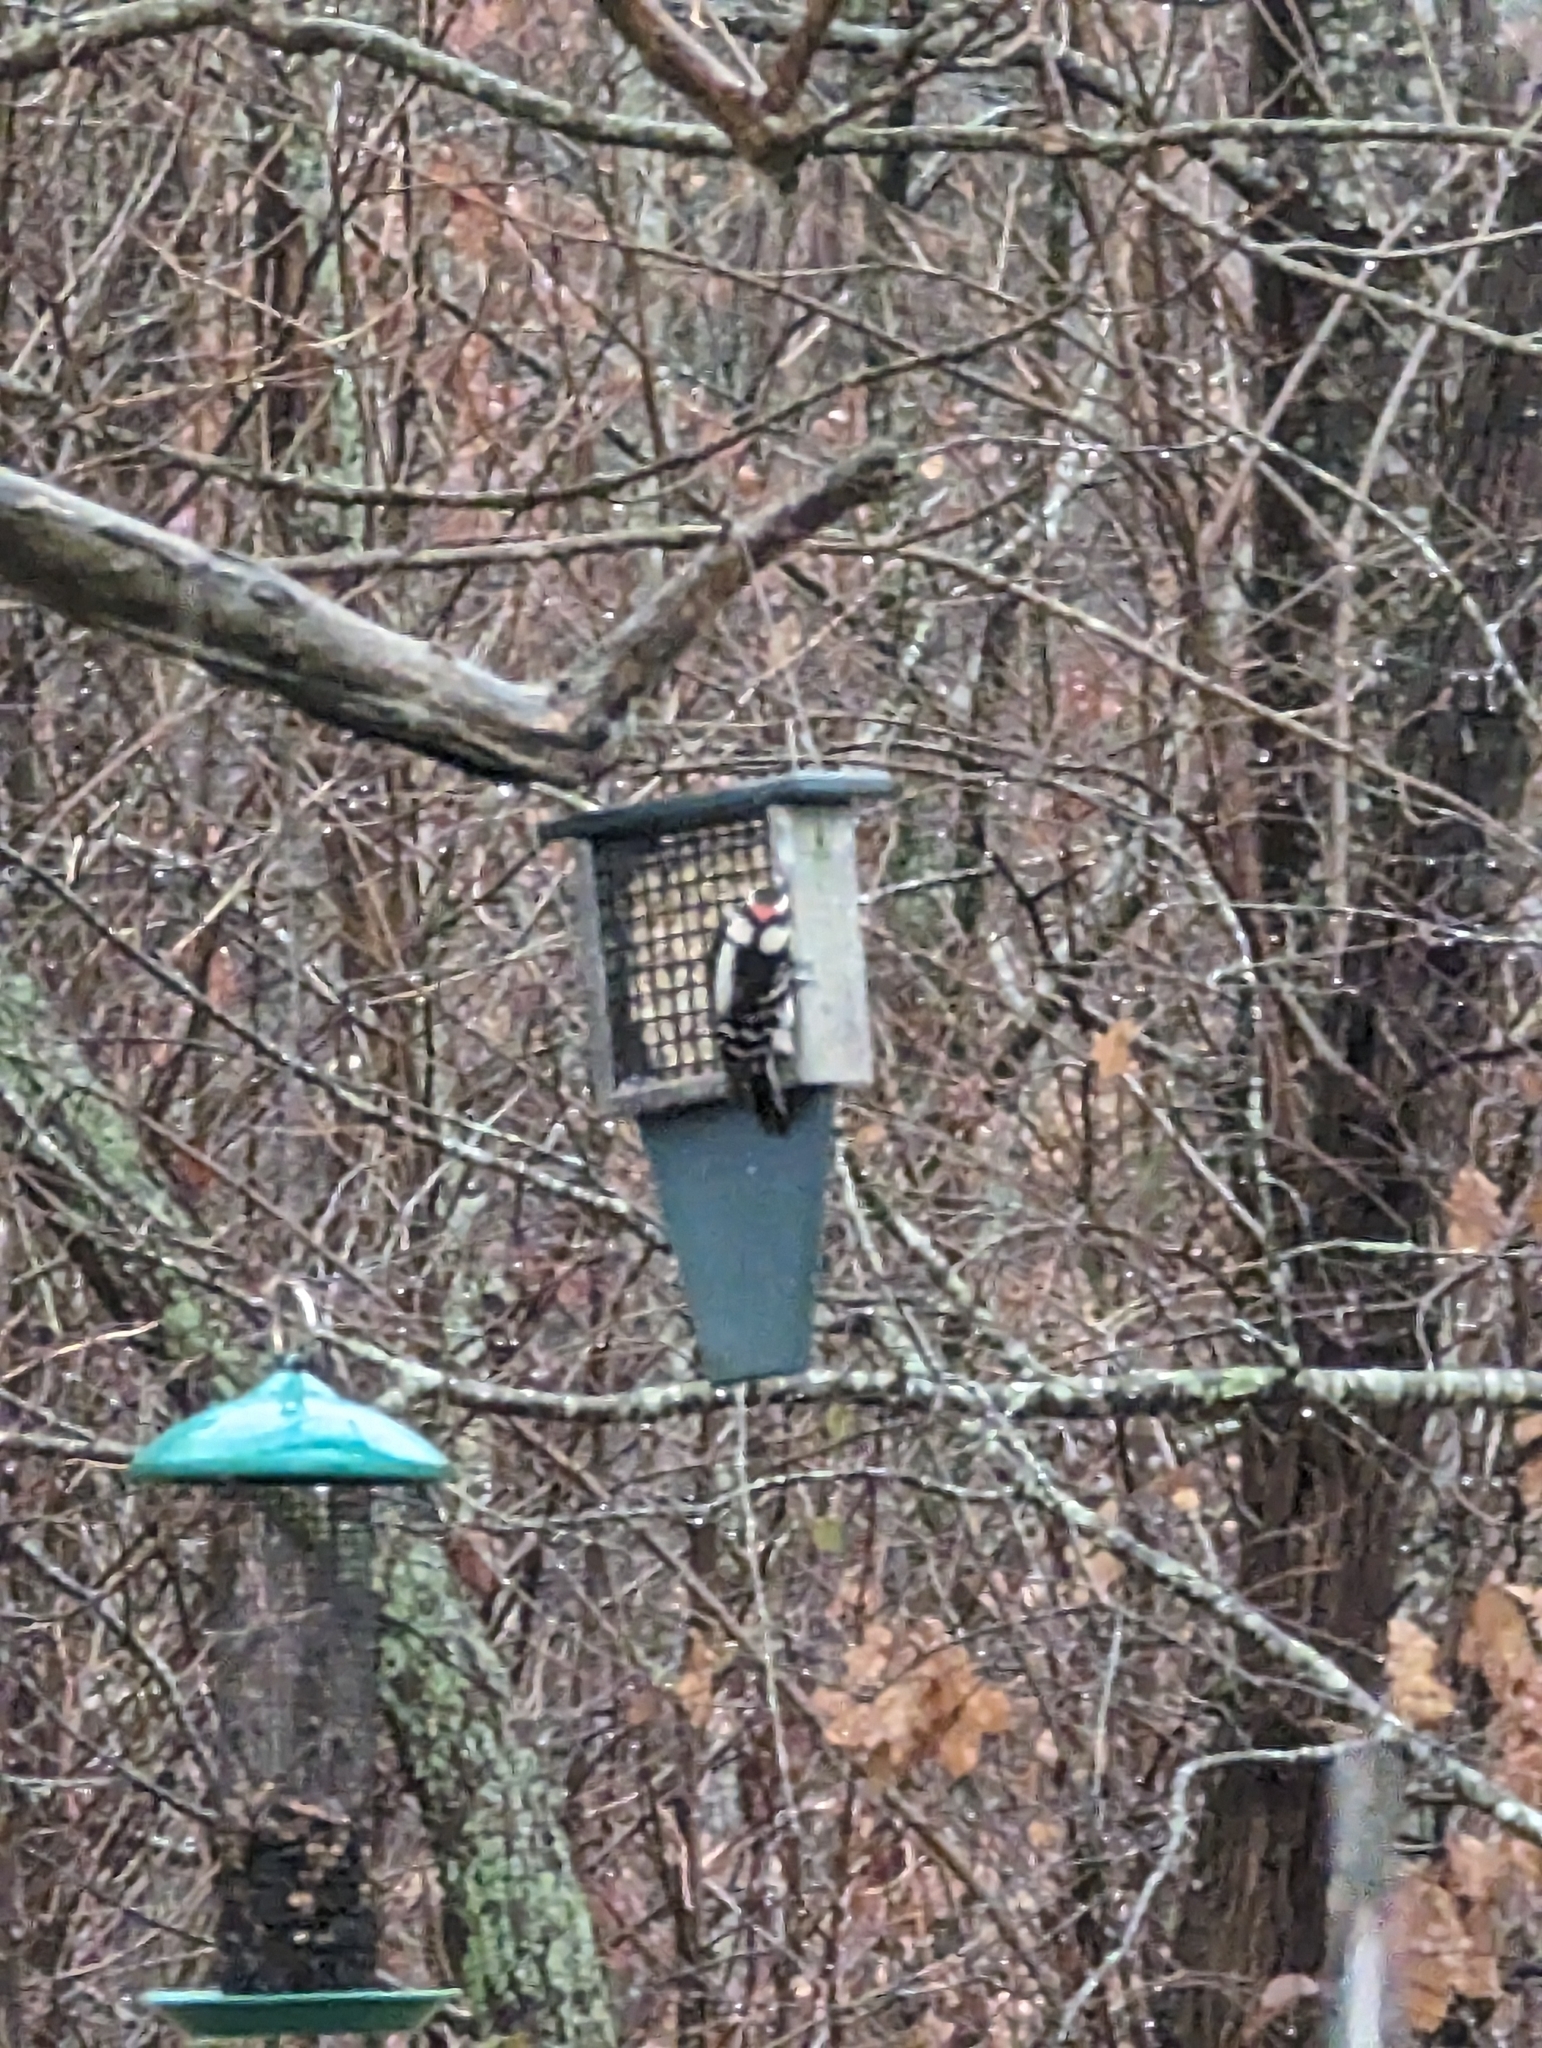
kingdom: Animalia
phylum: Chordata
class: Aves
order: Piciformes
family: Picidae
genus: Dryobates
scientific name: Dryobates pubescens
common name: Downy woodpecker
